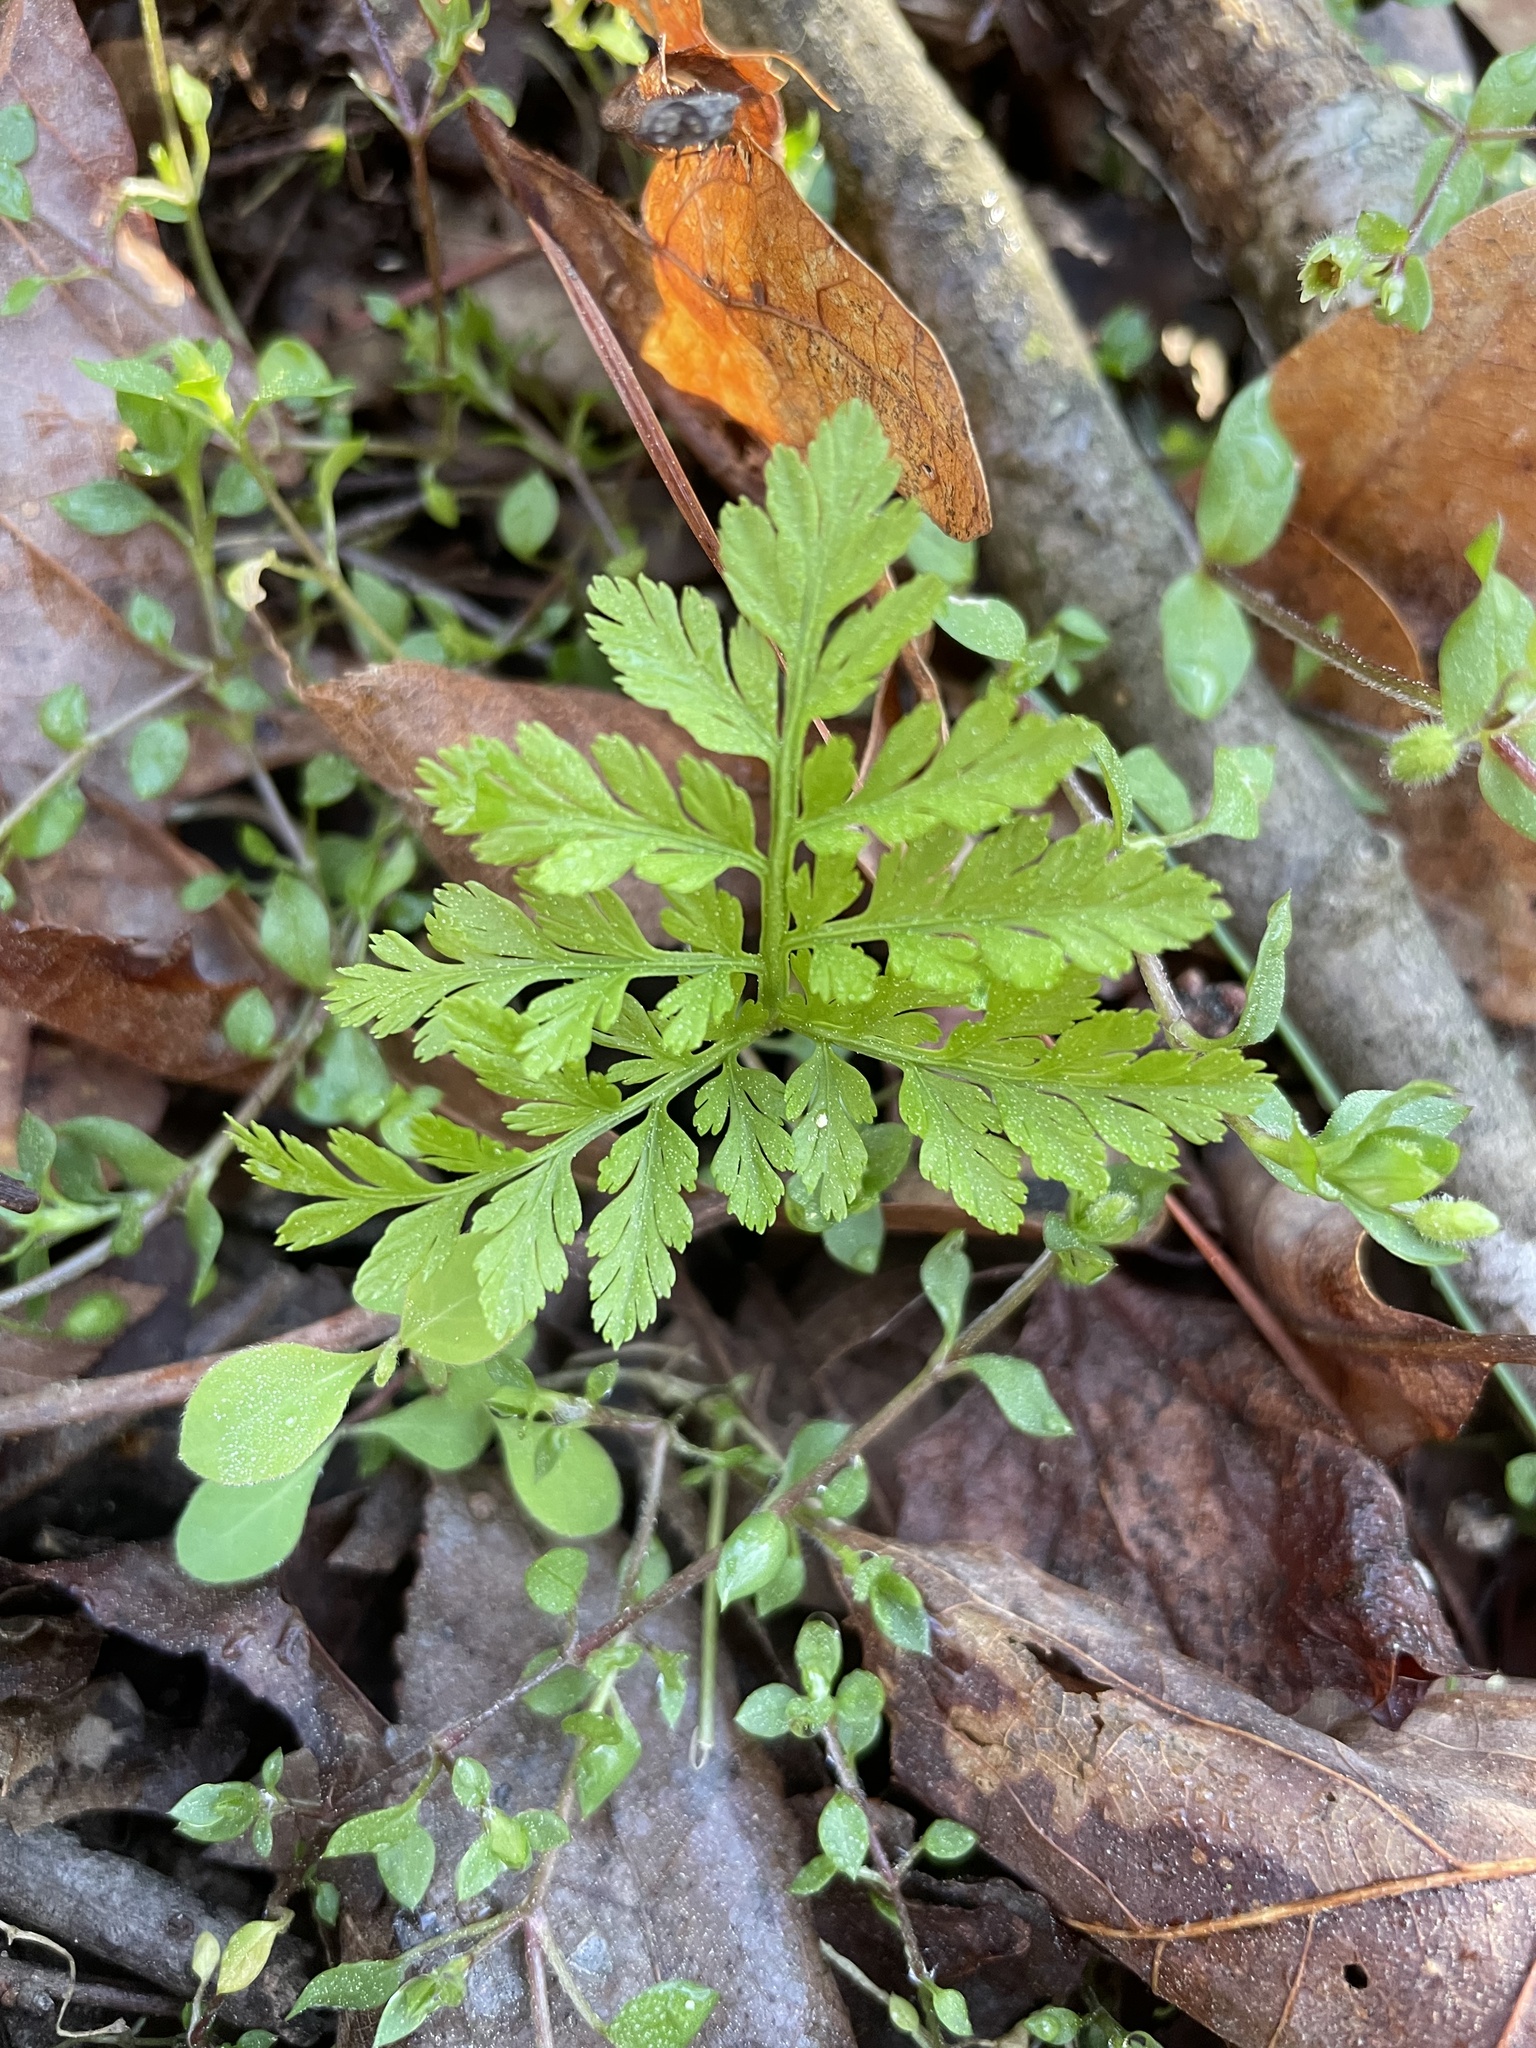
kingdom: Plantae
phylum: Tracheophyta
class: Polypodiopsida
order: Ophioglossales
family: Ophioglossaceae
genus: Botrypus
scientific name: Botrypus virginianus
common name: Common grapefern
